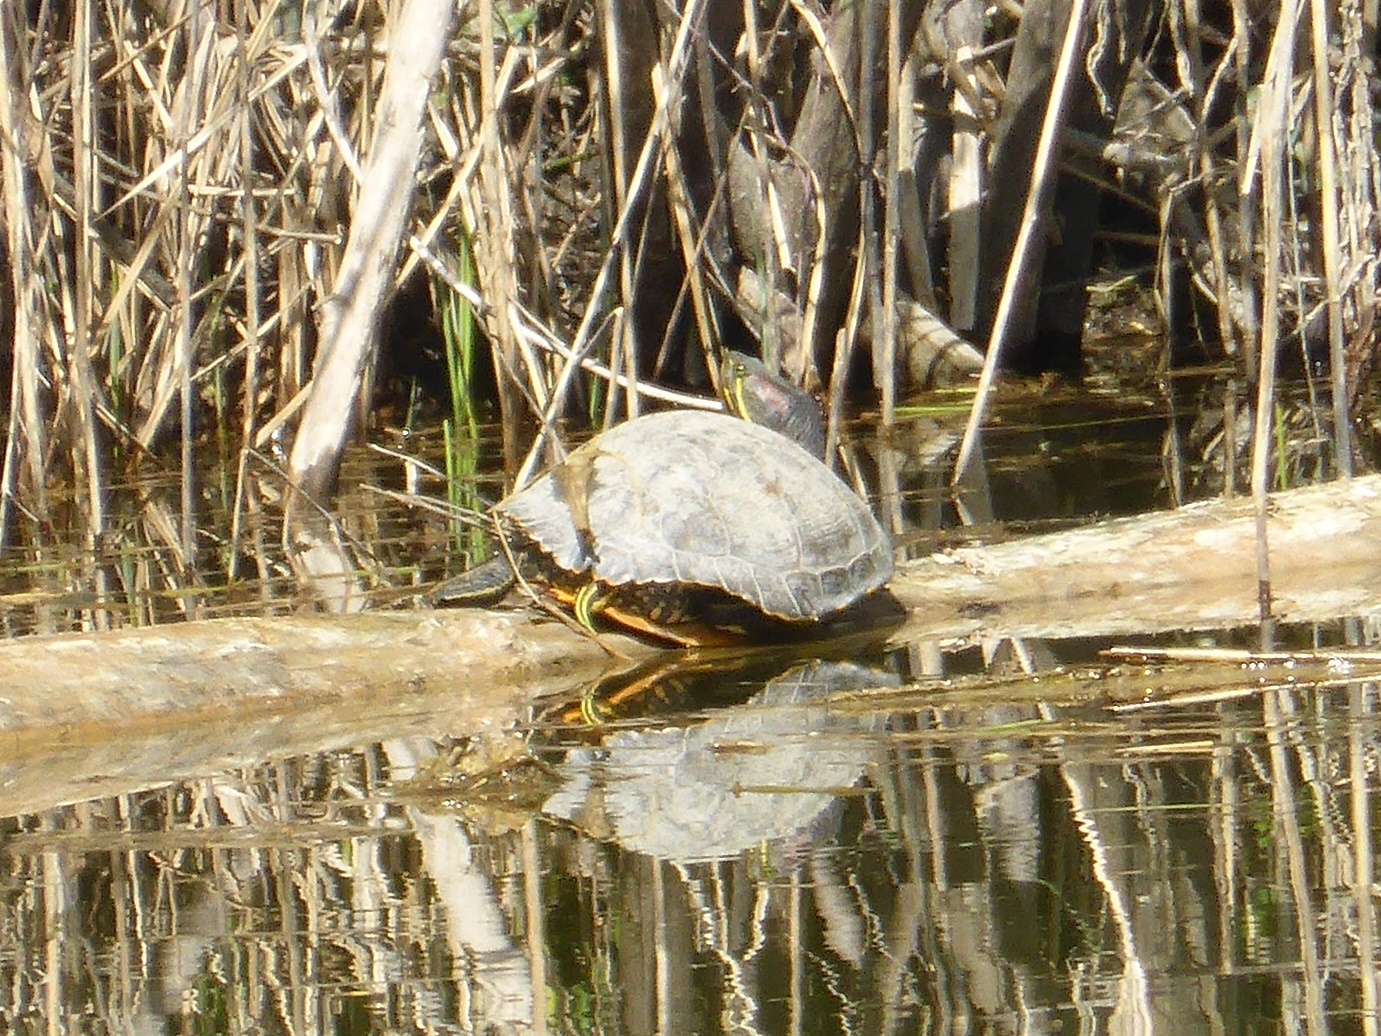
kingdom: Animalia
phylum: Chordata
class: Testudines
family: Emydidae
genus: Trachemys
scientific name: Trachemys scripta
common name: Slider
